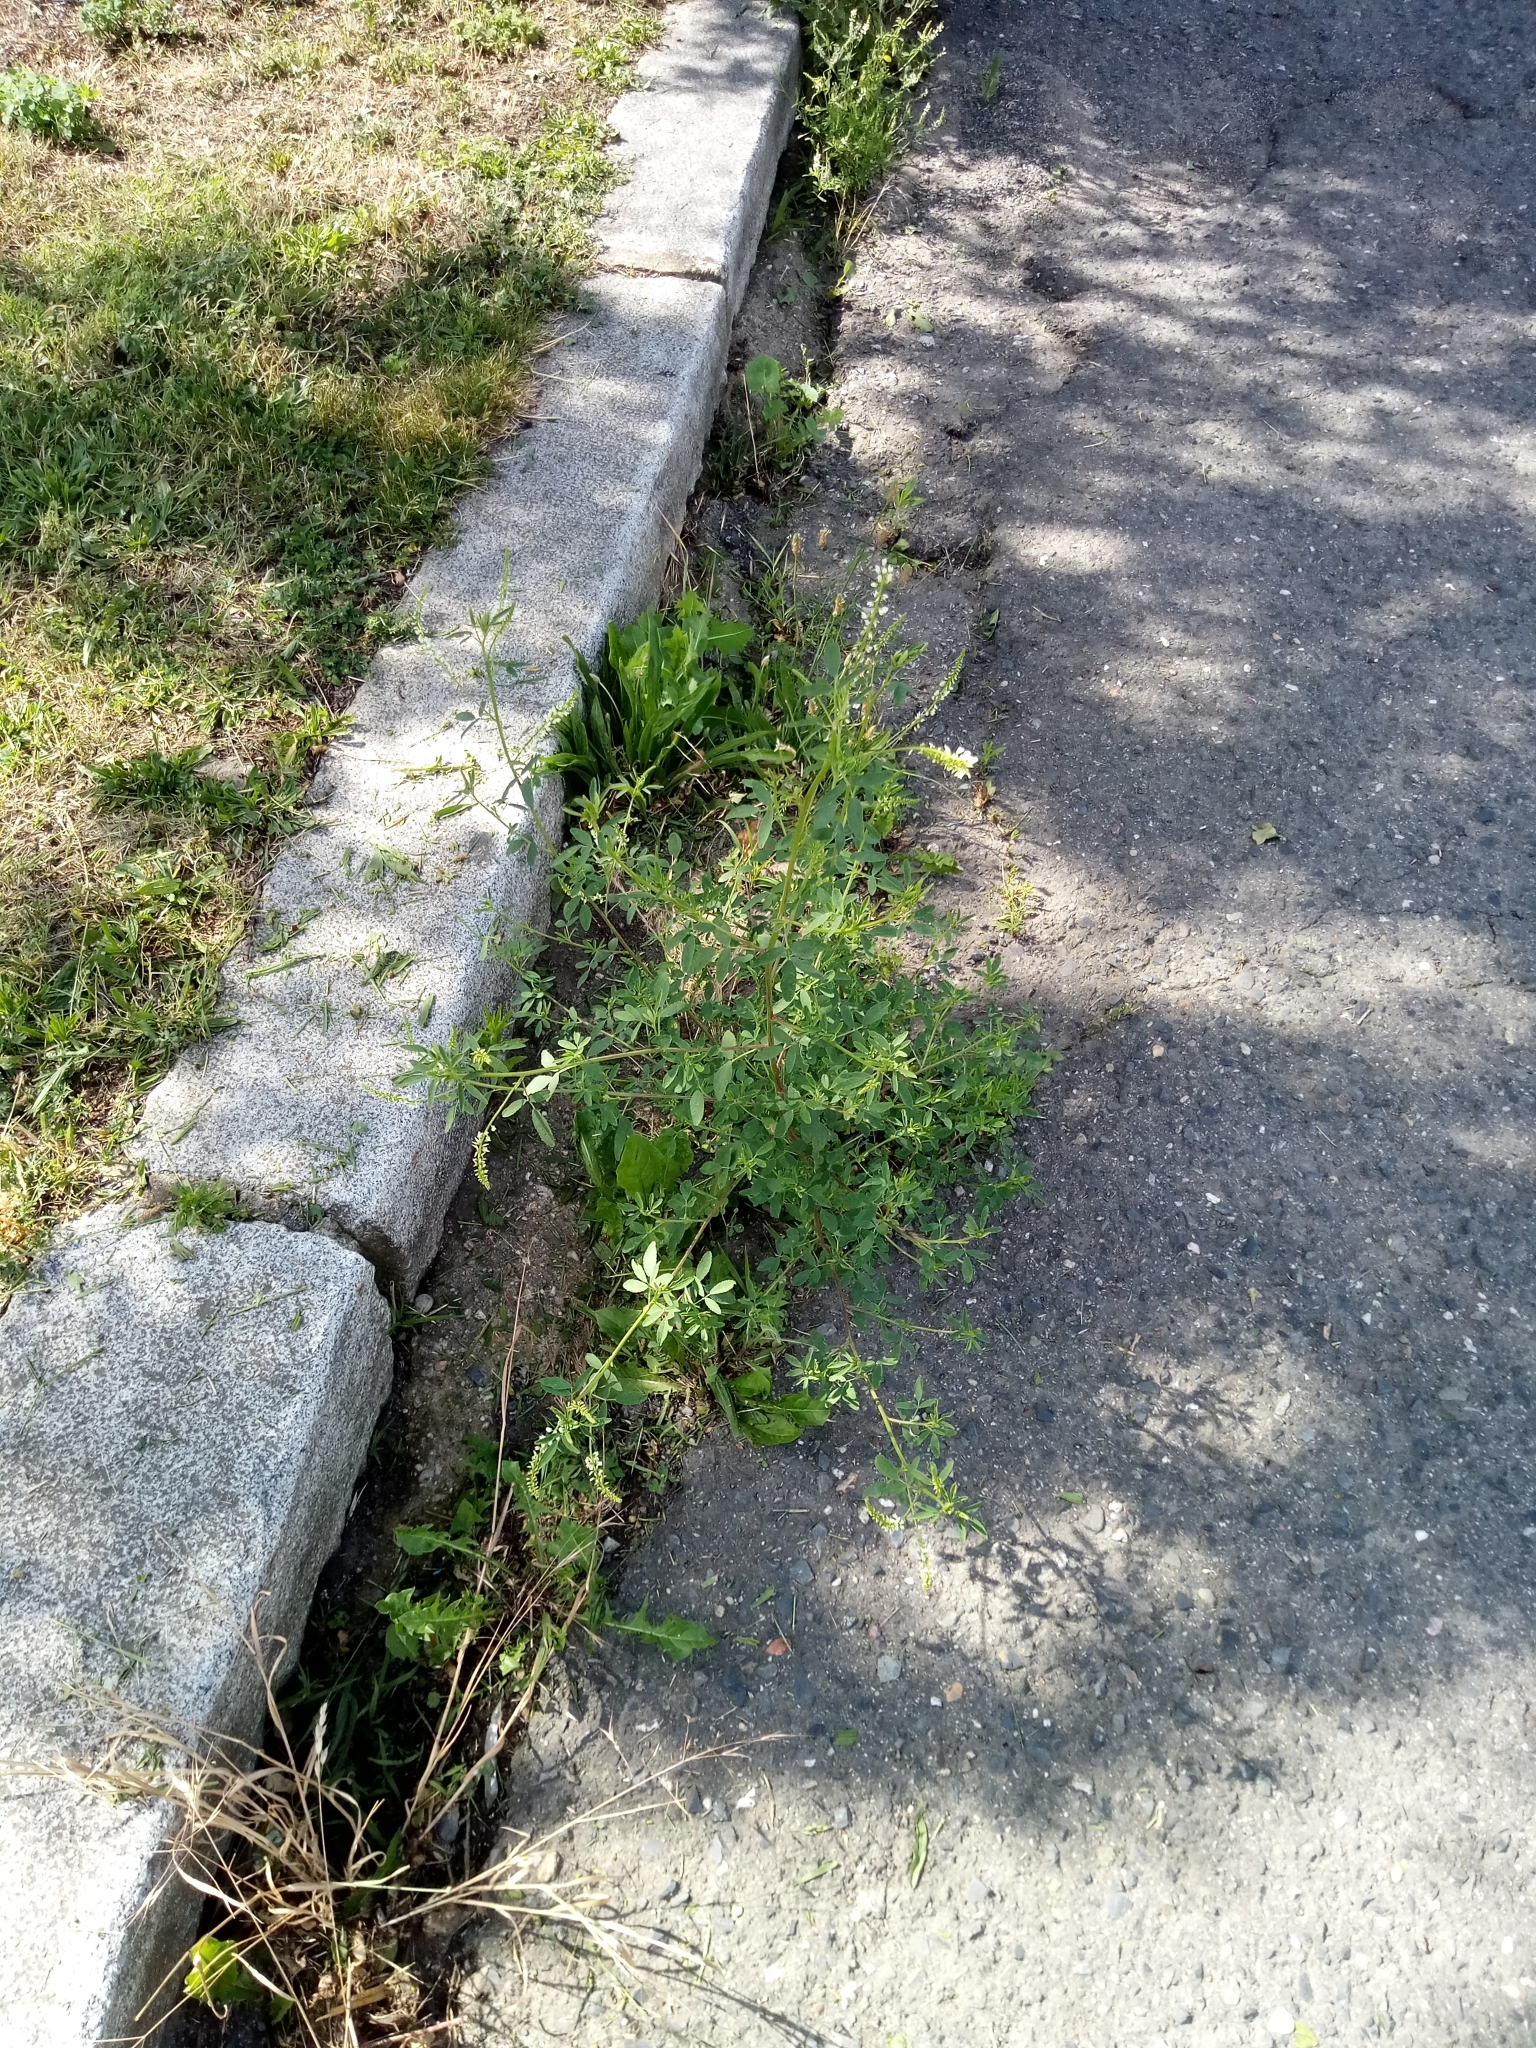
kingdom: Plantae
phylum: Tracheophyta
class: Magnoliopsida
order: Fabales
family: Fabaceae
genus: Melilotus
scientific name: Melilotus albus
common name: White melilot
